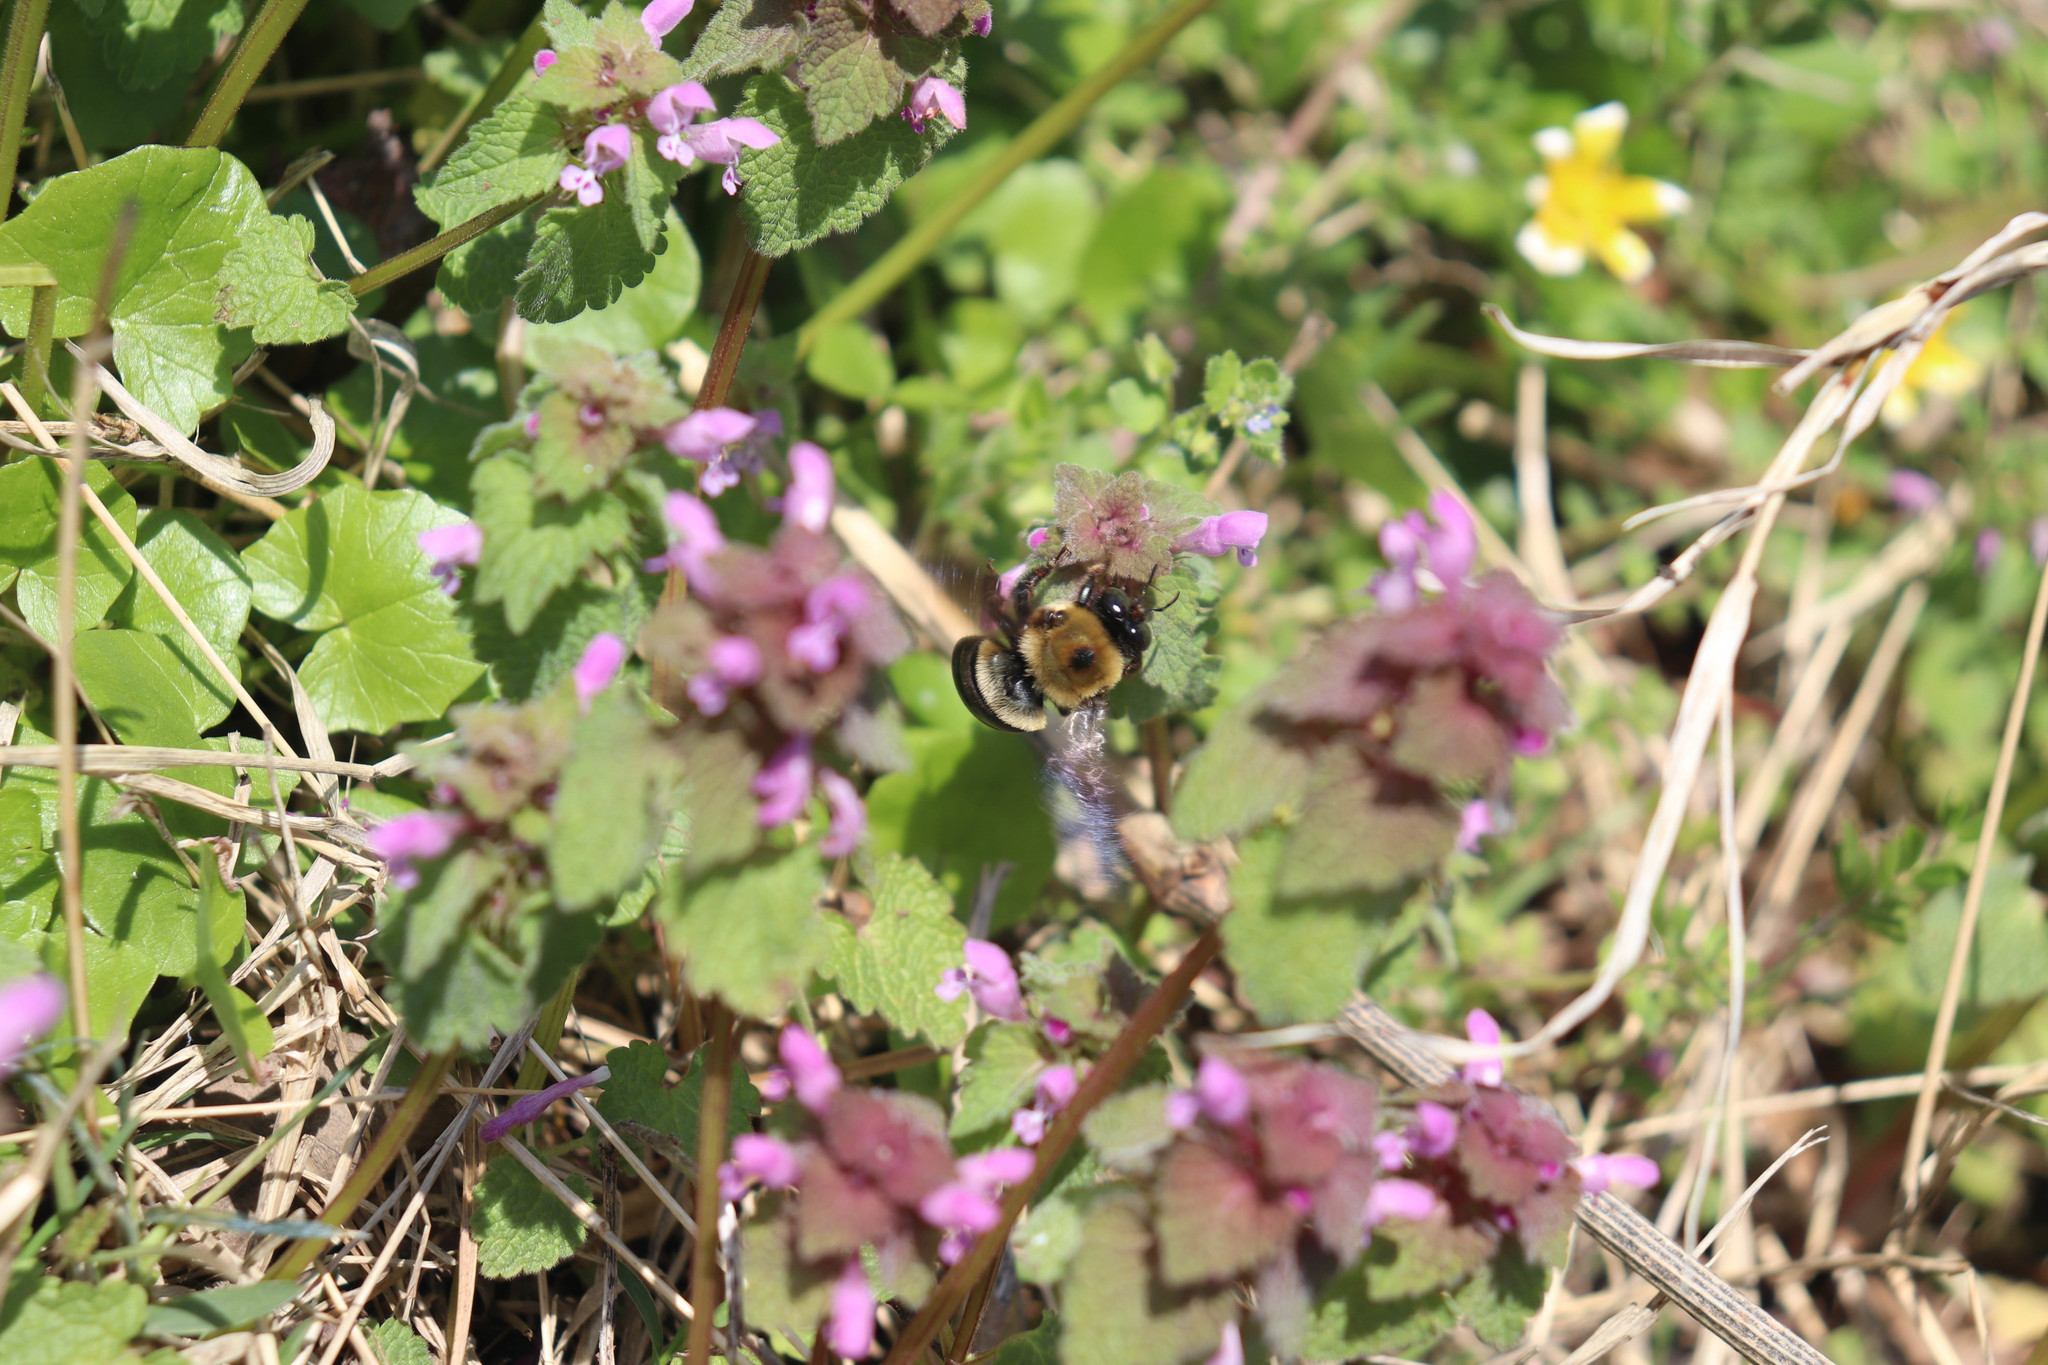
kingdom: Animalia
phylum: Arthropoda
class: Insecta
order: Hymenoptera
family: Apidae
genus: Xylocopa
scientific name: Xylocopa virginica
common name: Carpenter bee
